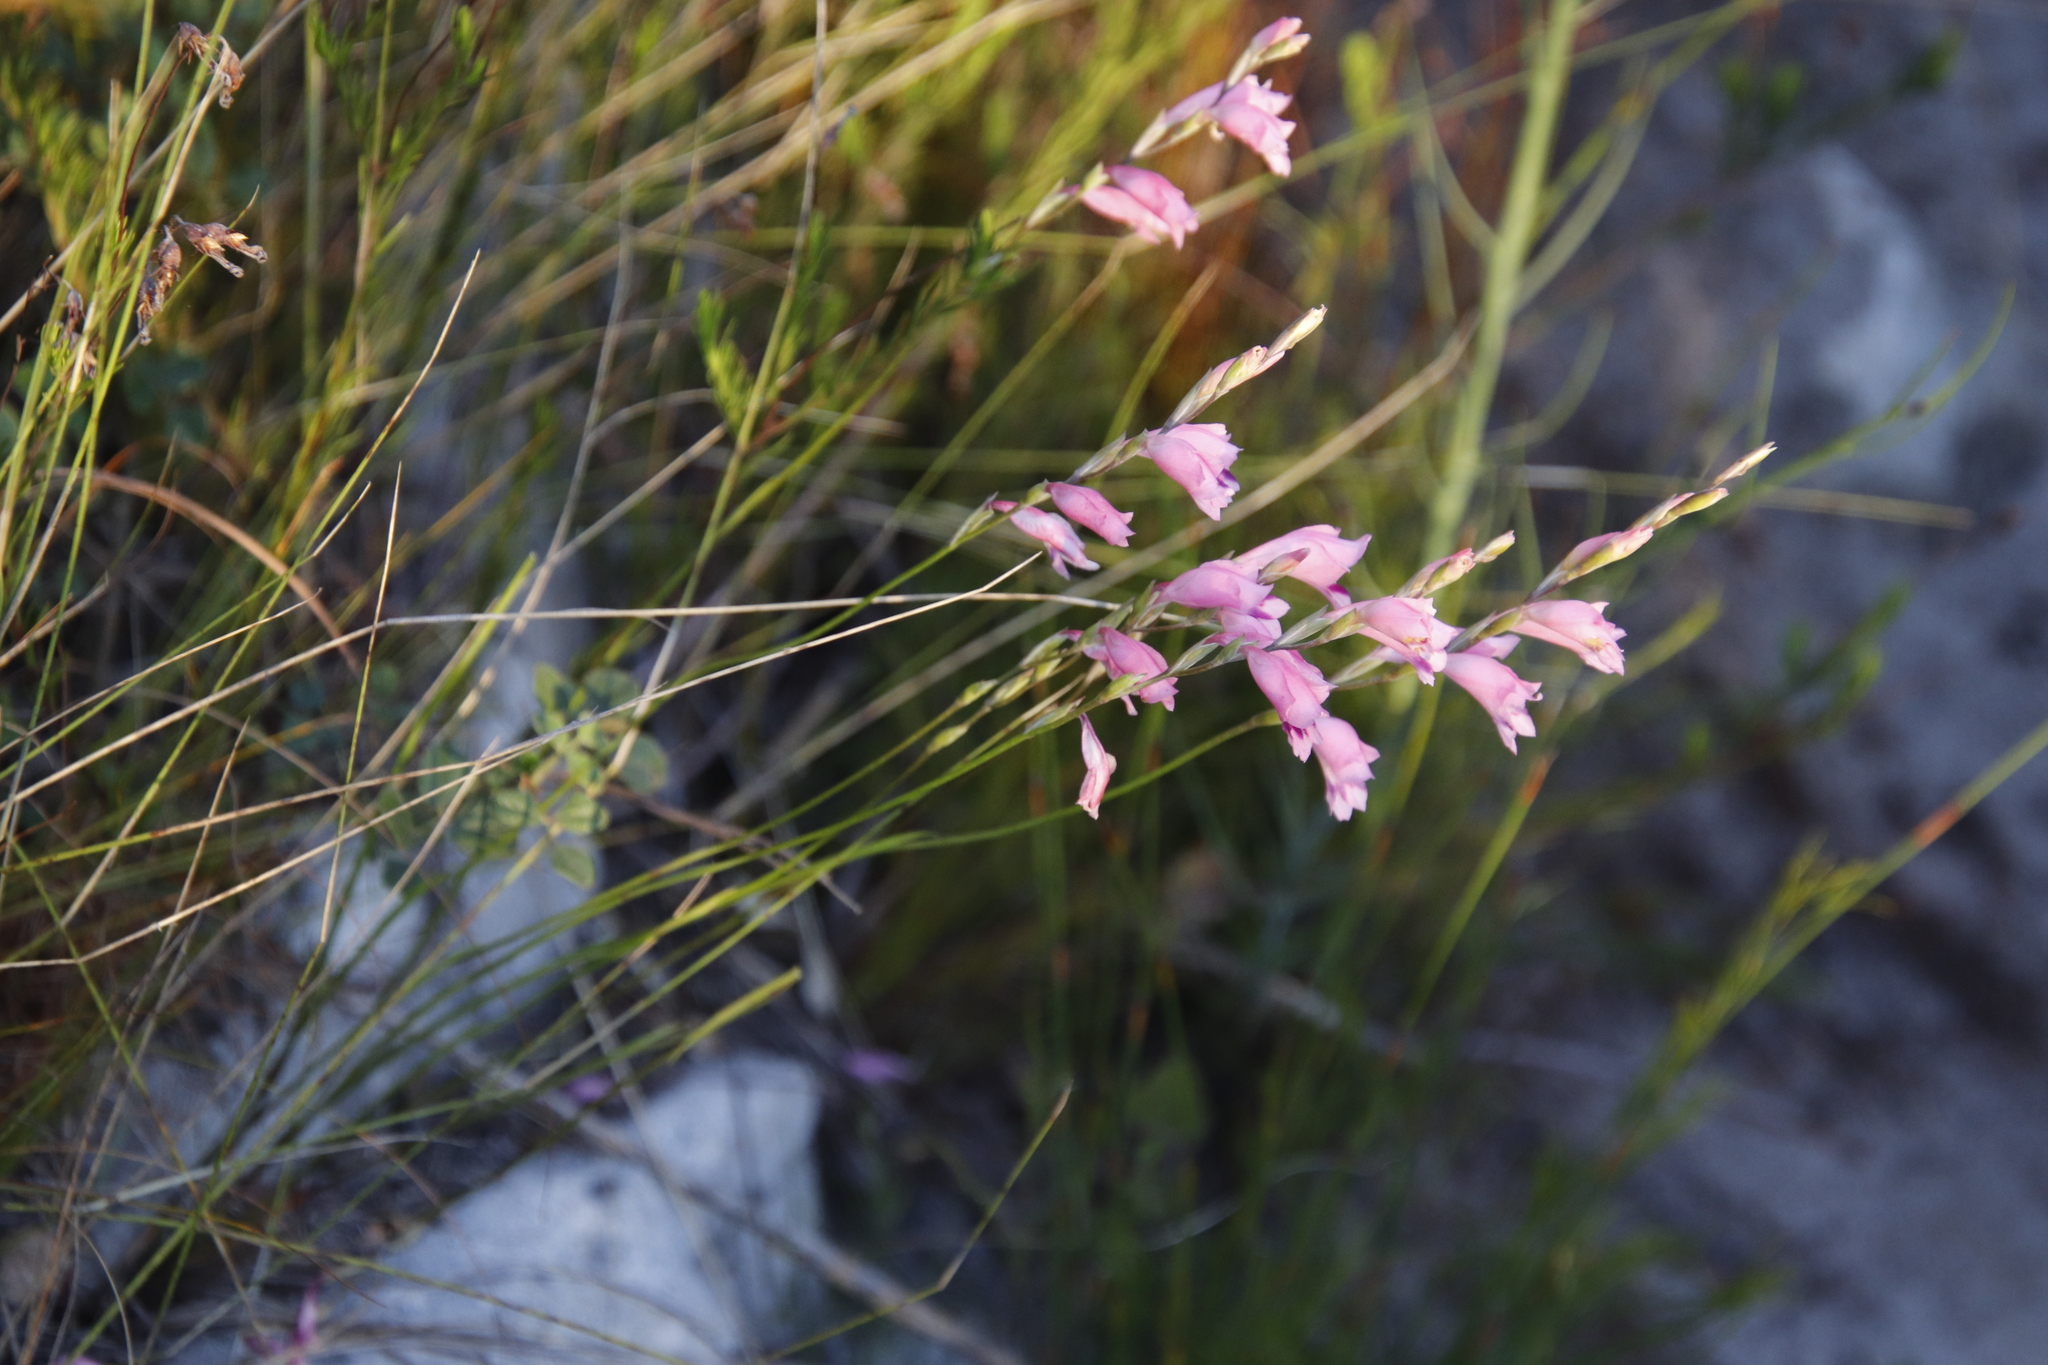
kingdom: Plantae
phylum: Tracheophyta
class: Liliopsida
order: Asparagales
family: Iridaceae
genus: Gladiolus
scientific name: Gladiolus brevifolius
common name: March pypie
